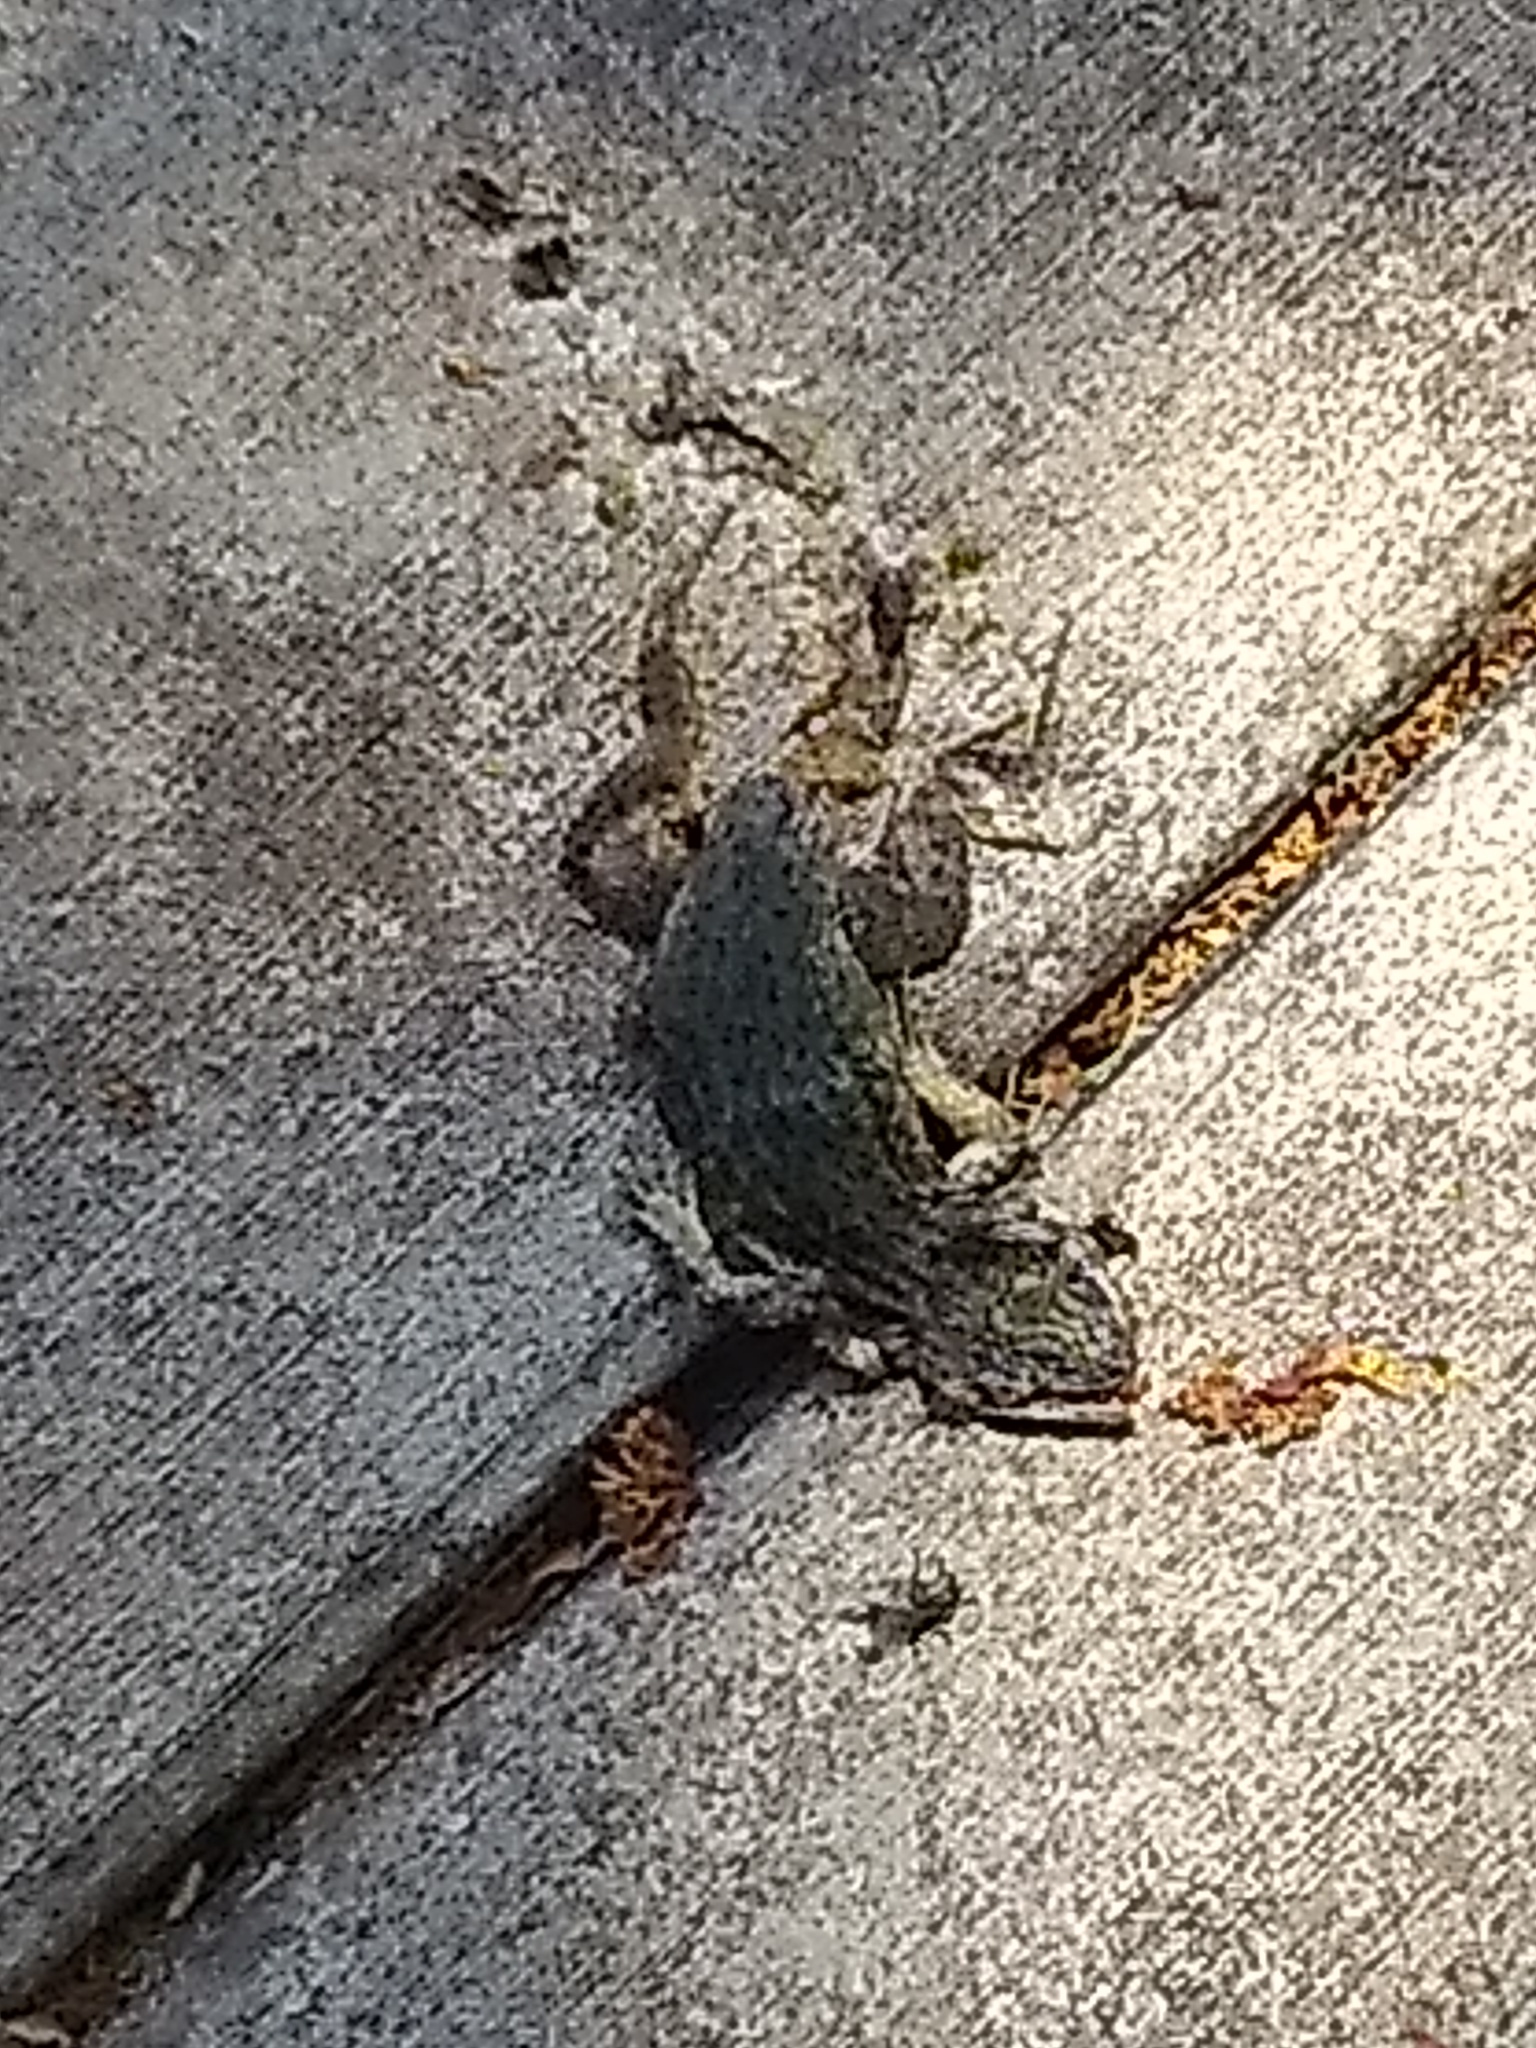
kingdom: Animalia
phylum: Chordata
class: Squamata
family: Leiocephalidae
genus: Leiocephalus
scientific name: Leiocephalus carinatus
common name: Northern curly-tailed lizard
